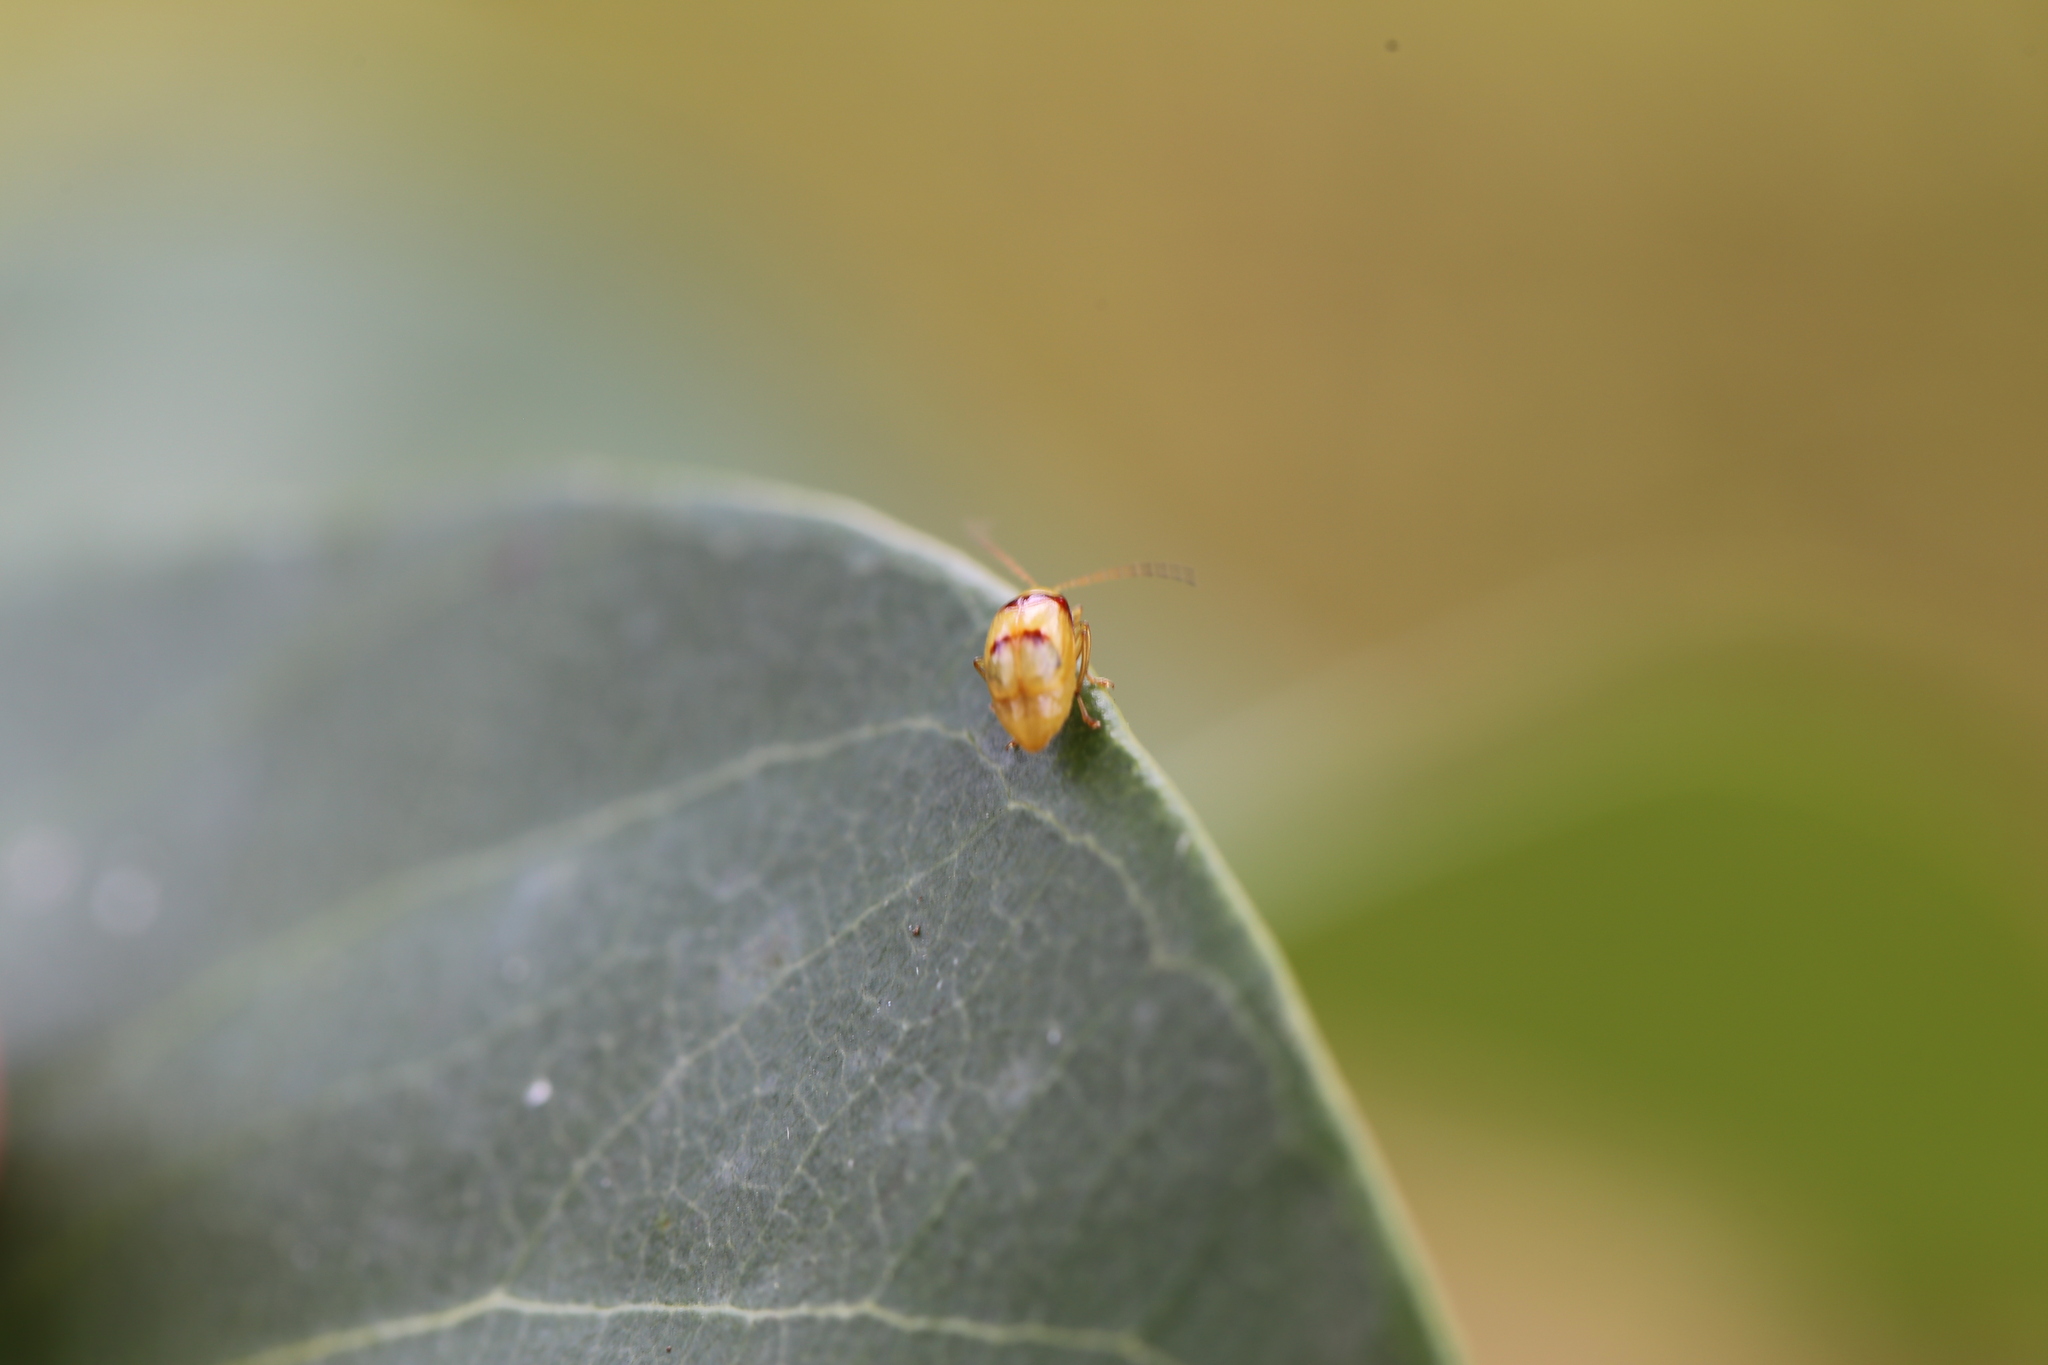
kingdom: Animalia
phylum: Arthropoda
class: Insecta
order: Coleoptera
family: Chrysomelidae
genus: Monolepta
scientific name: Monolepta
